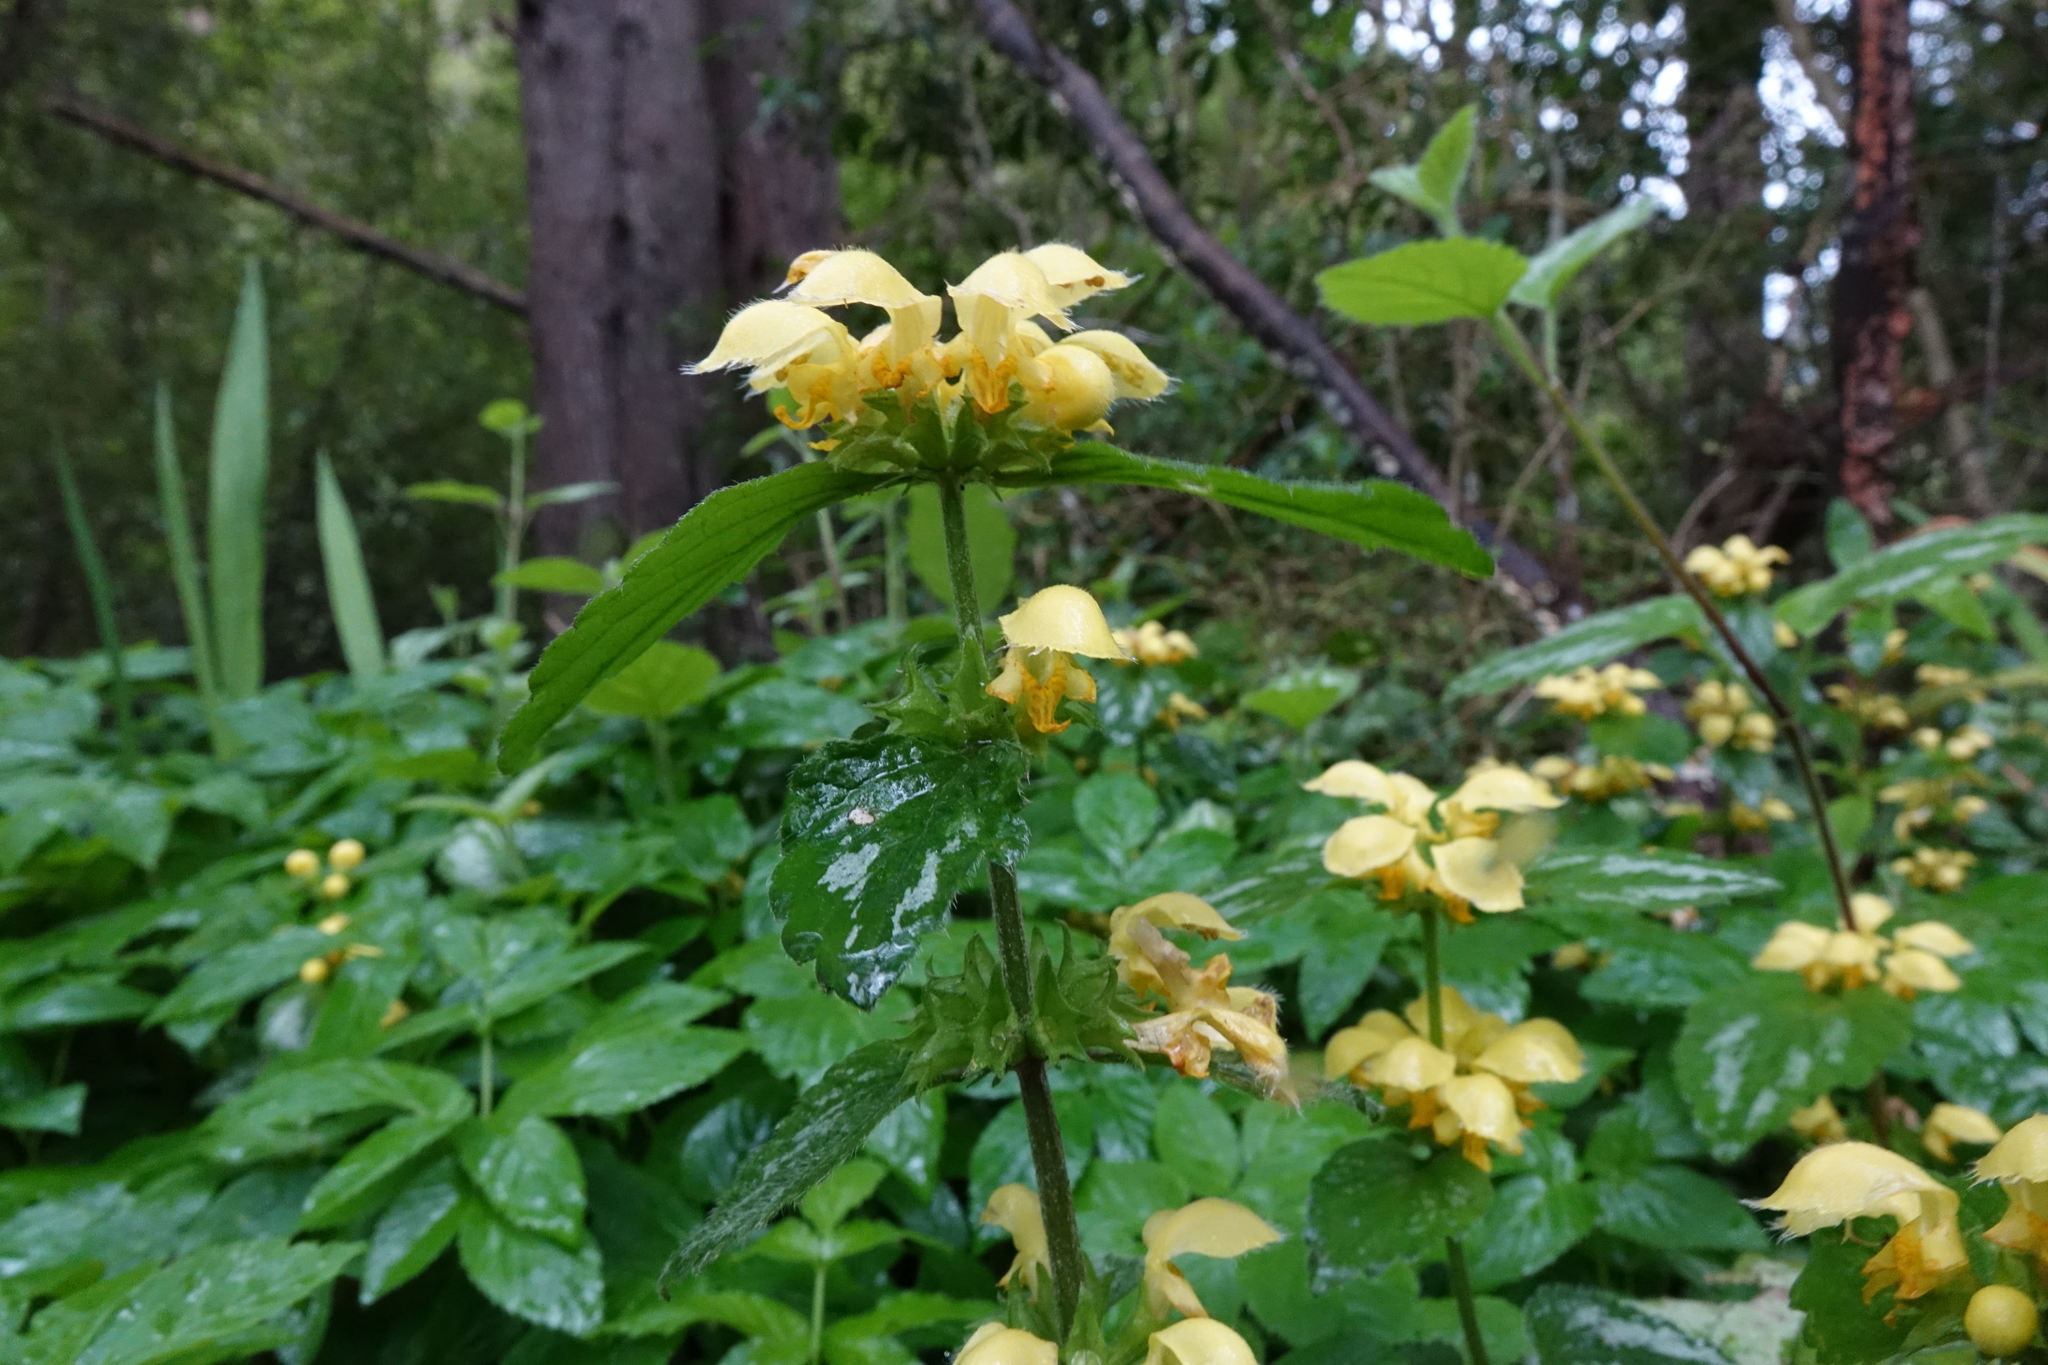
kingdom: Plantae
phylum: Tracheophyta
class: Magnoliopsida
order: Lamiales
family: Lamiaceae
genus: Lamium
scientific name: Lamium galeobdolon
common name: Yellow archangel
